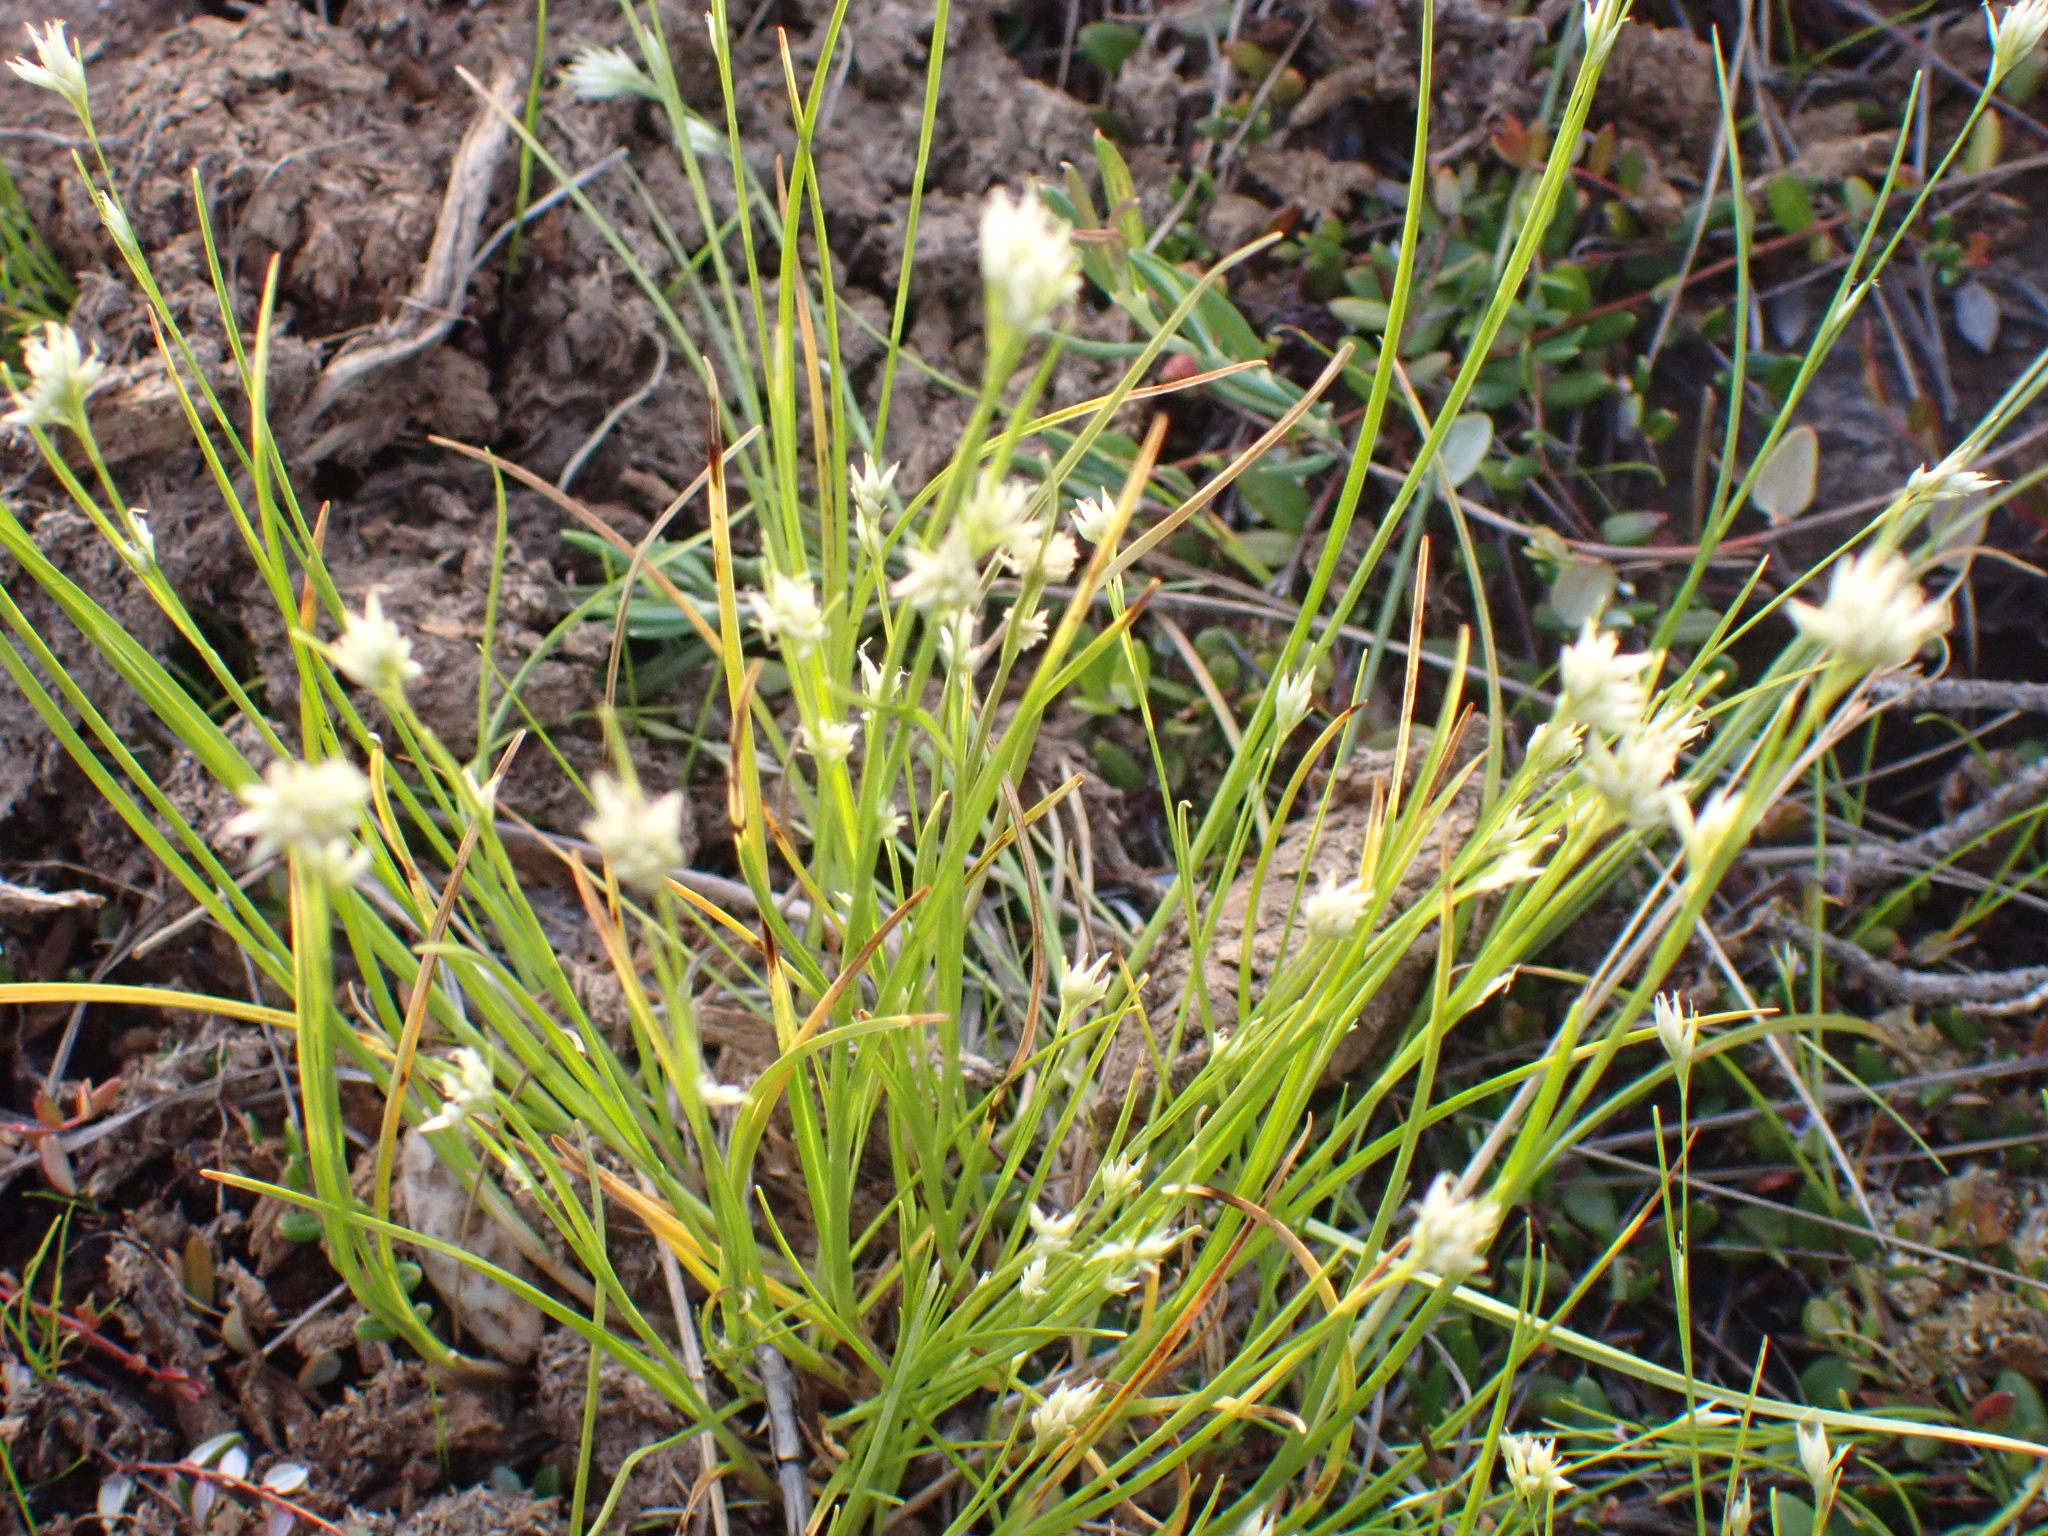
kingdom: Plantae
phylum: Tracheophyta
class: Liliopsida
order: Poales
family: Cyperaceae
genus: Rhynchospora
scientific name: Rhynchospora alba
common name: White beak-sedge
